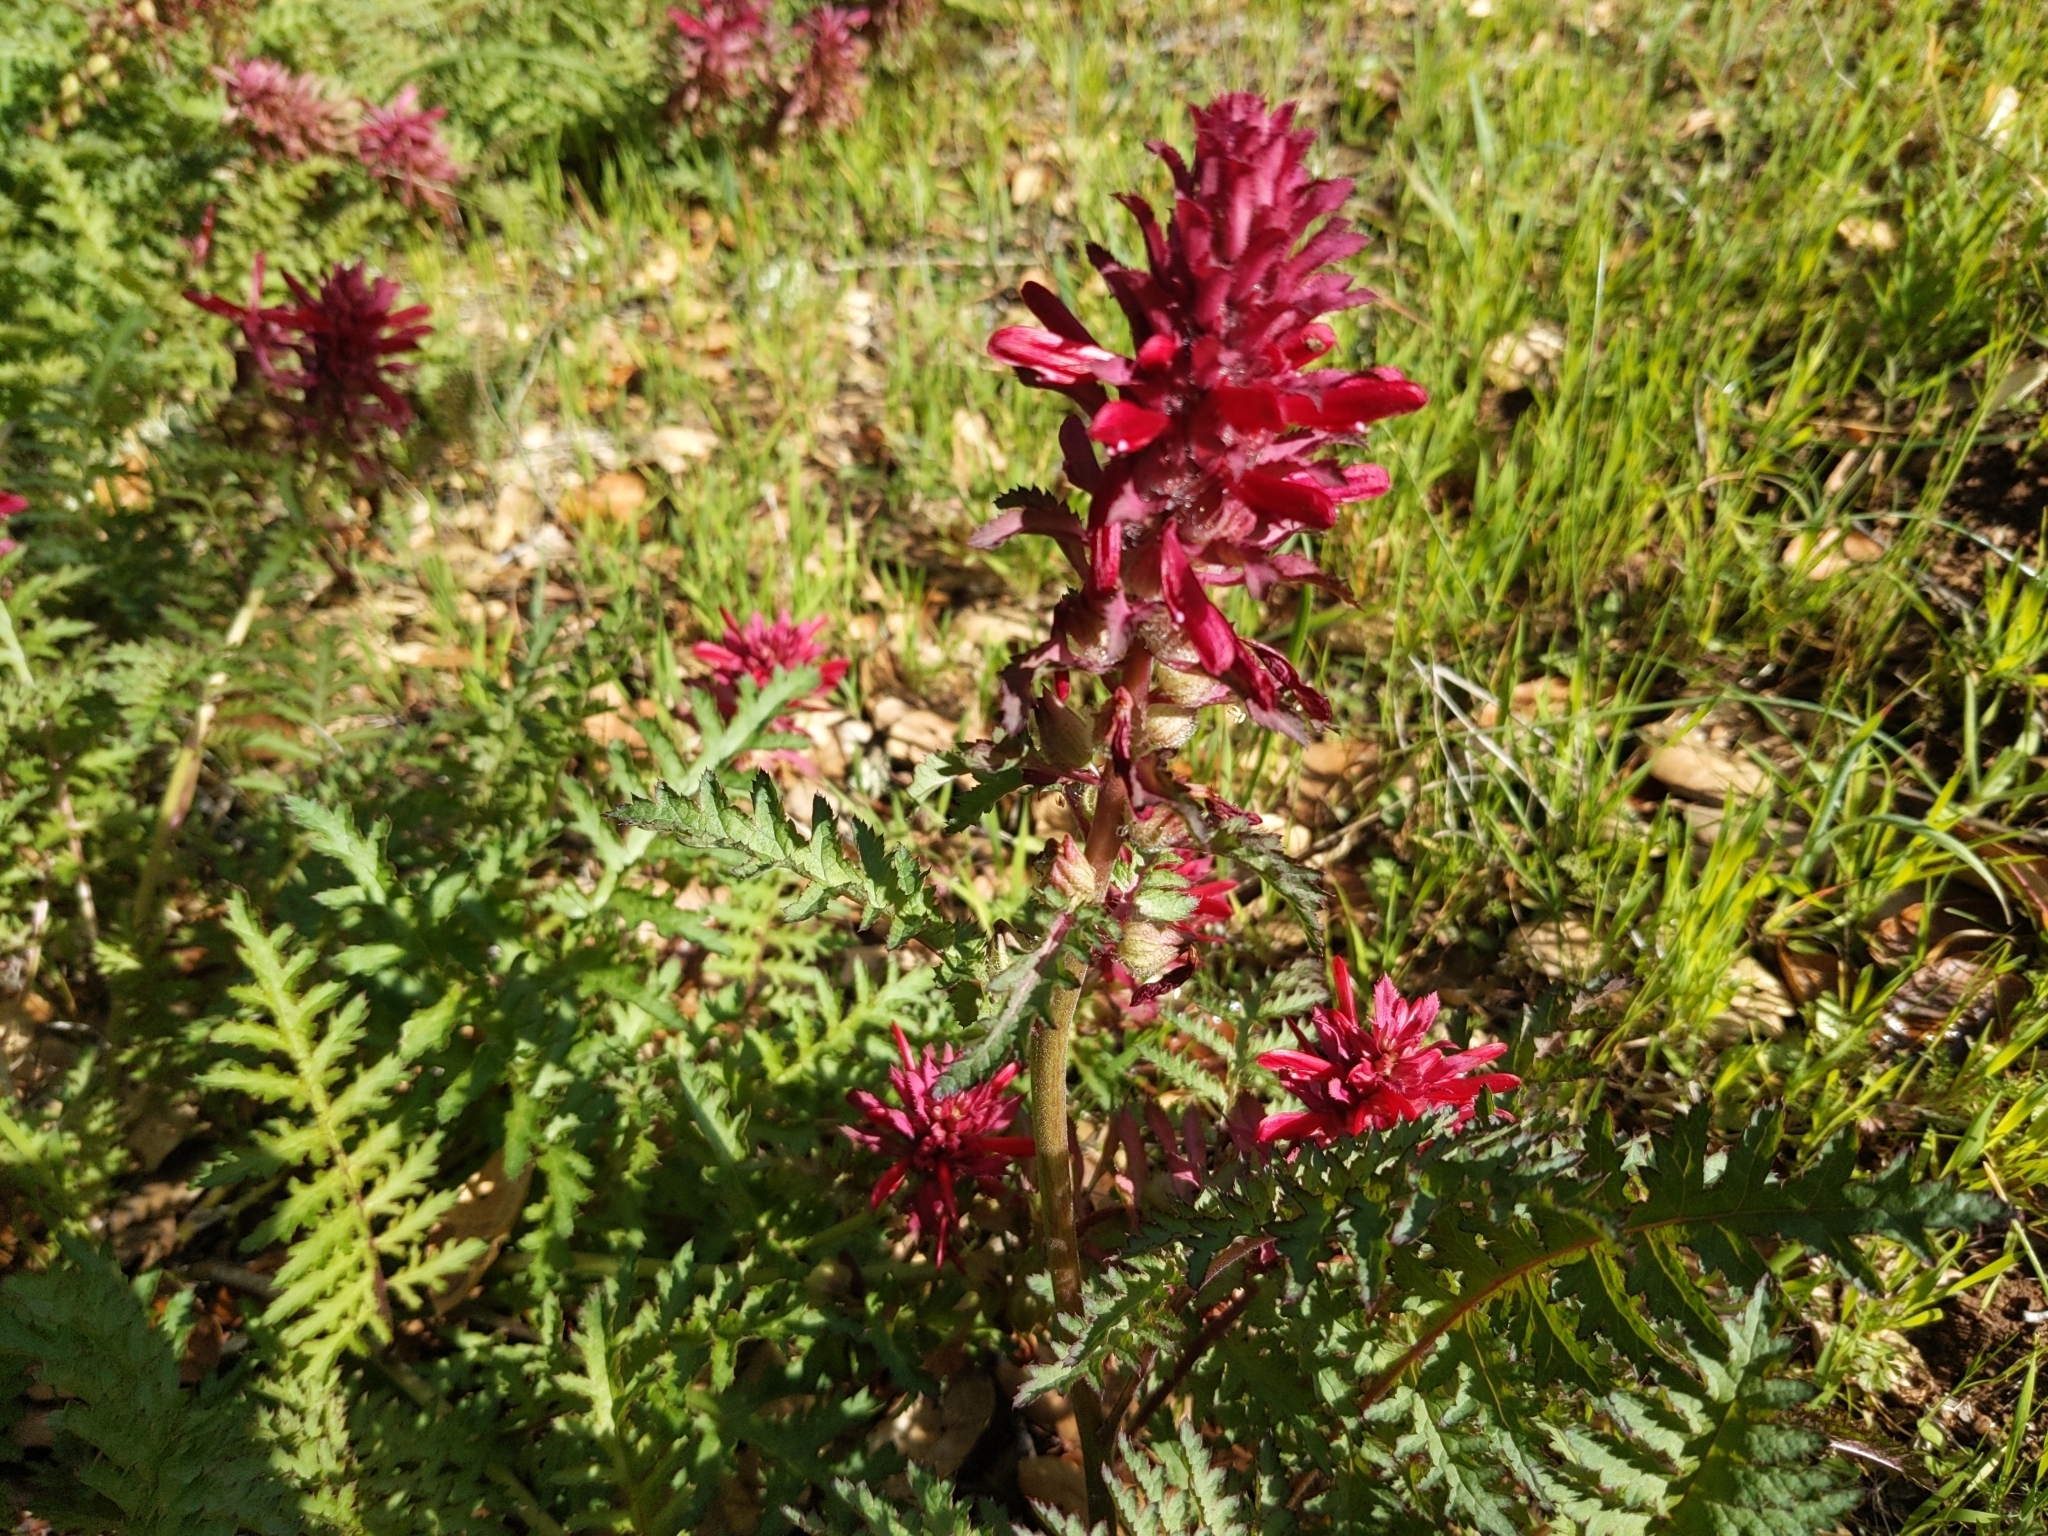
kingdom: Plantae
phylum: Tracheophyta
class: Magnoliopsida
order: Lamiales
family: Orobanchaceae
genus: Pedicularis
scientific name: Pedicularis densiflora
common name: Indian warrior
